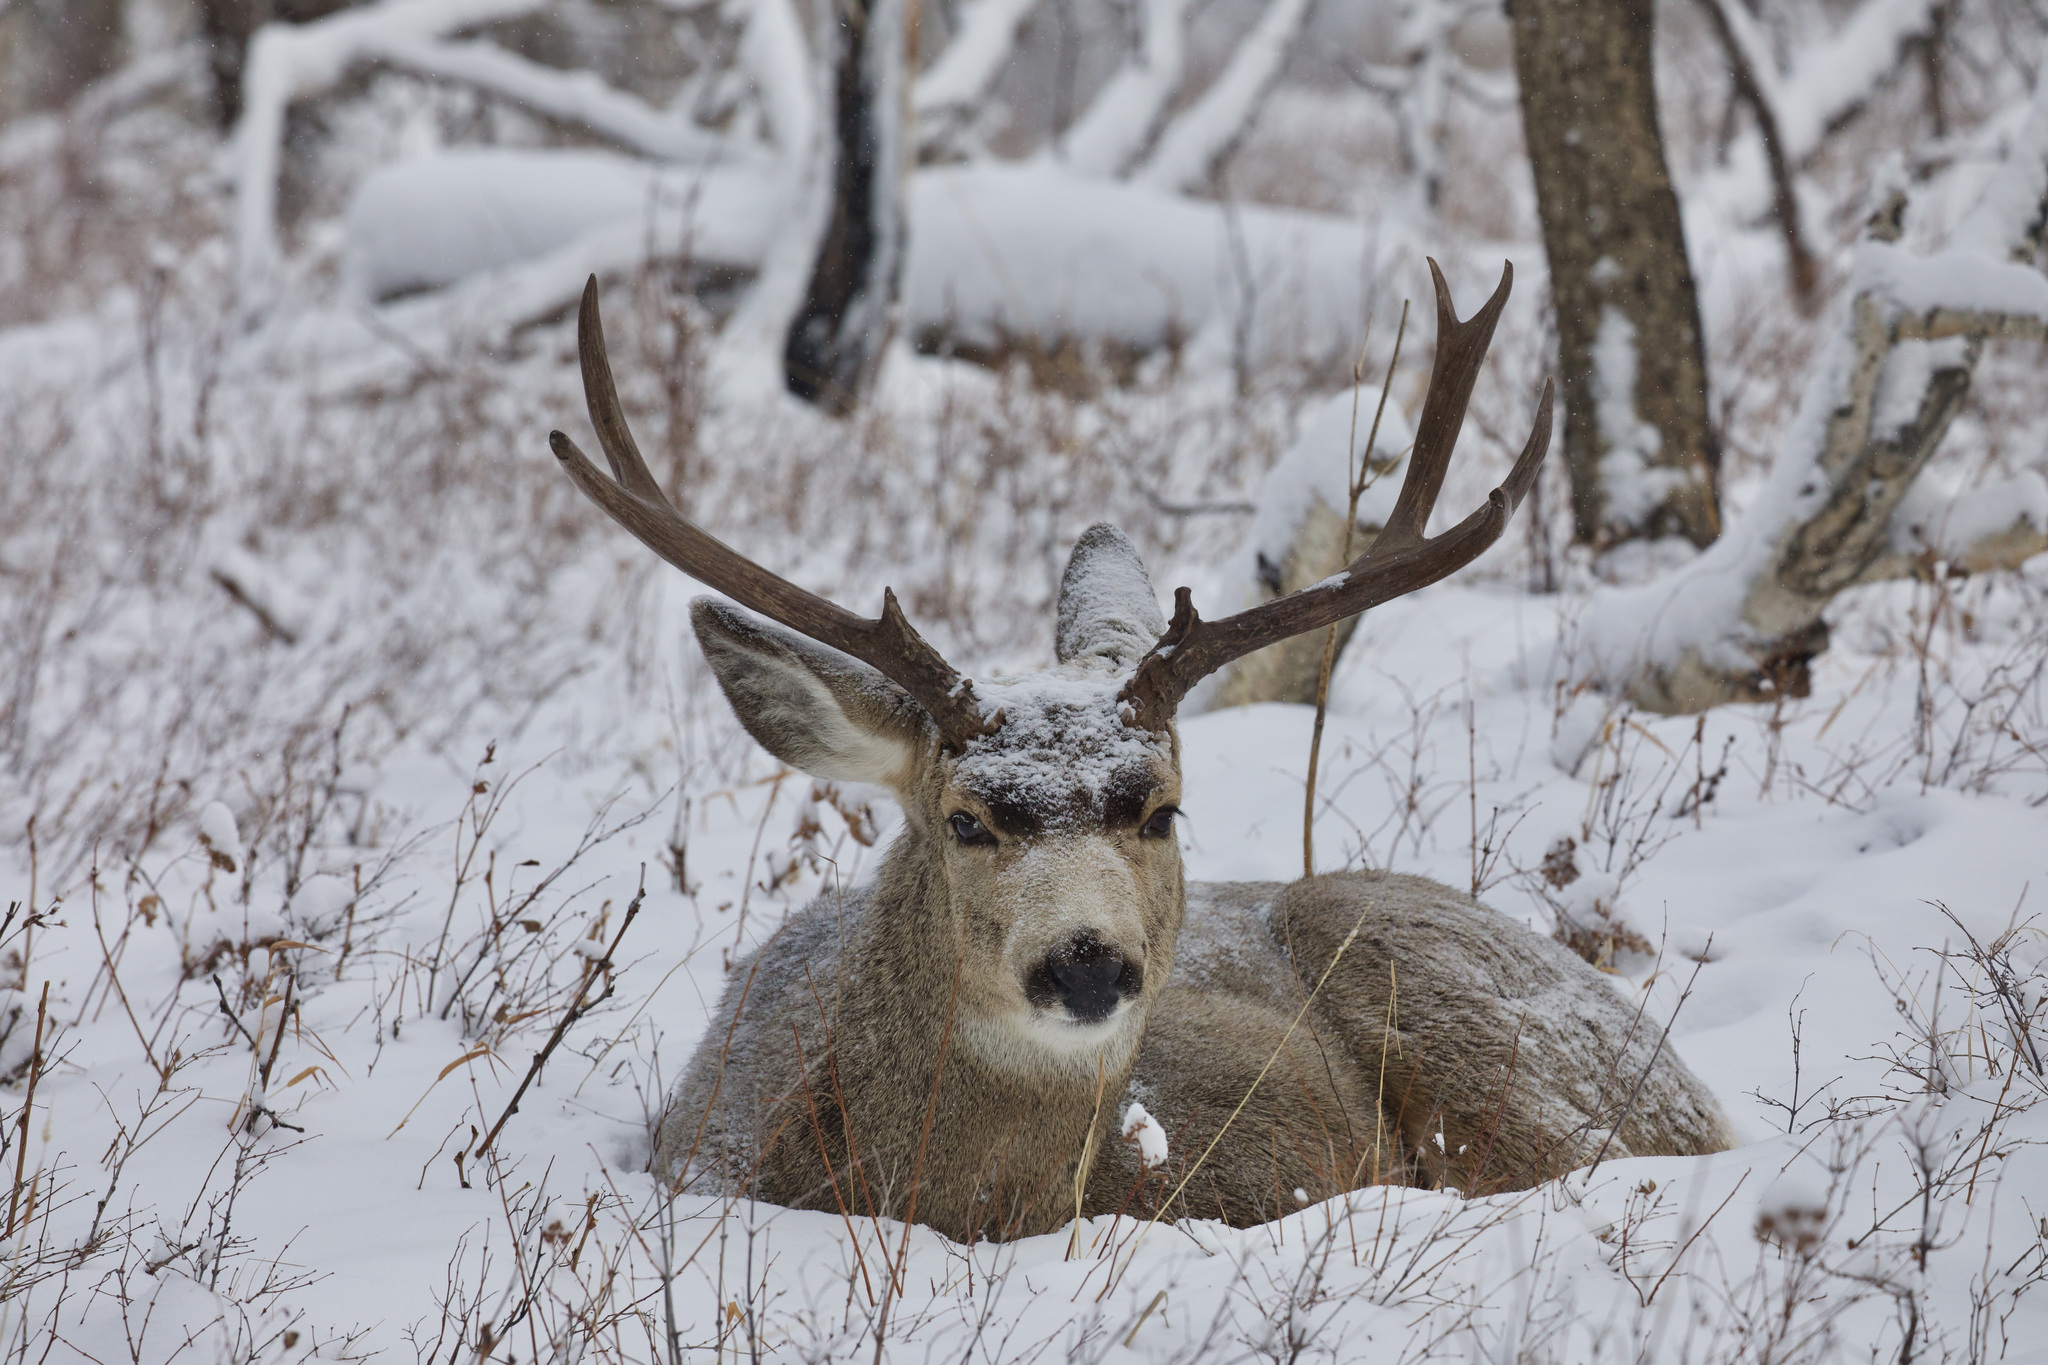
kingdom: Animalia
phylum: Chordata
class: Mammalia
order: Artiodactyla
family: Cervidae
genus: Odocoileus
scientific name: Odocoileus hemionus
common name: Mule deer
